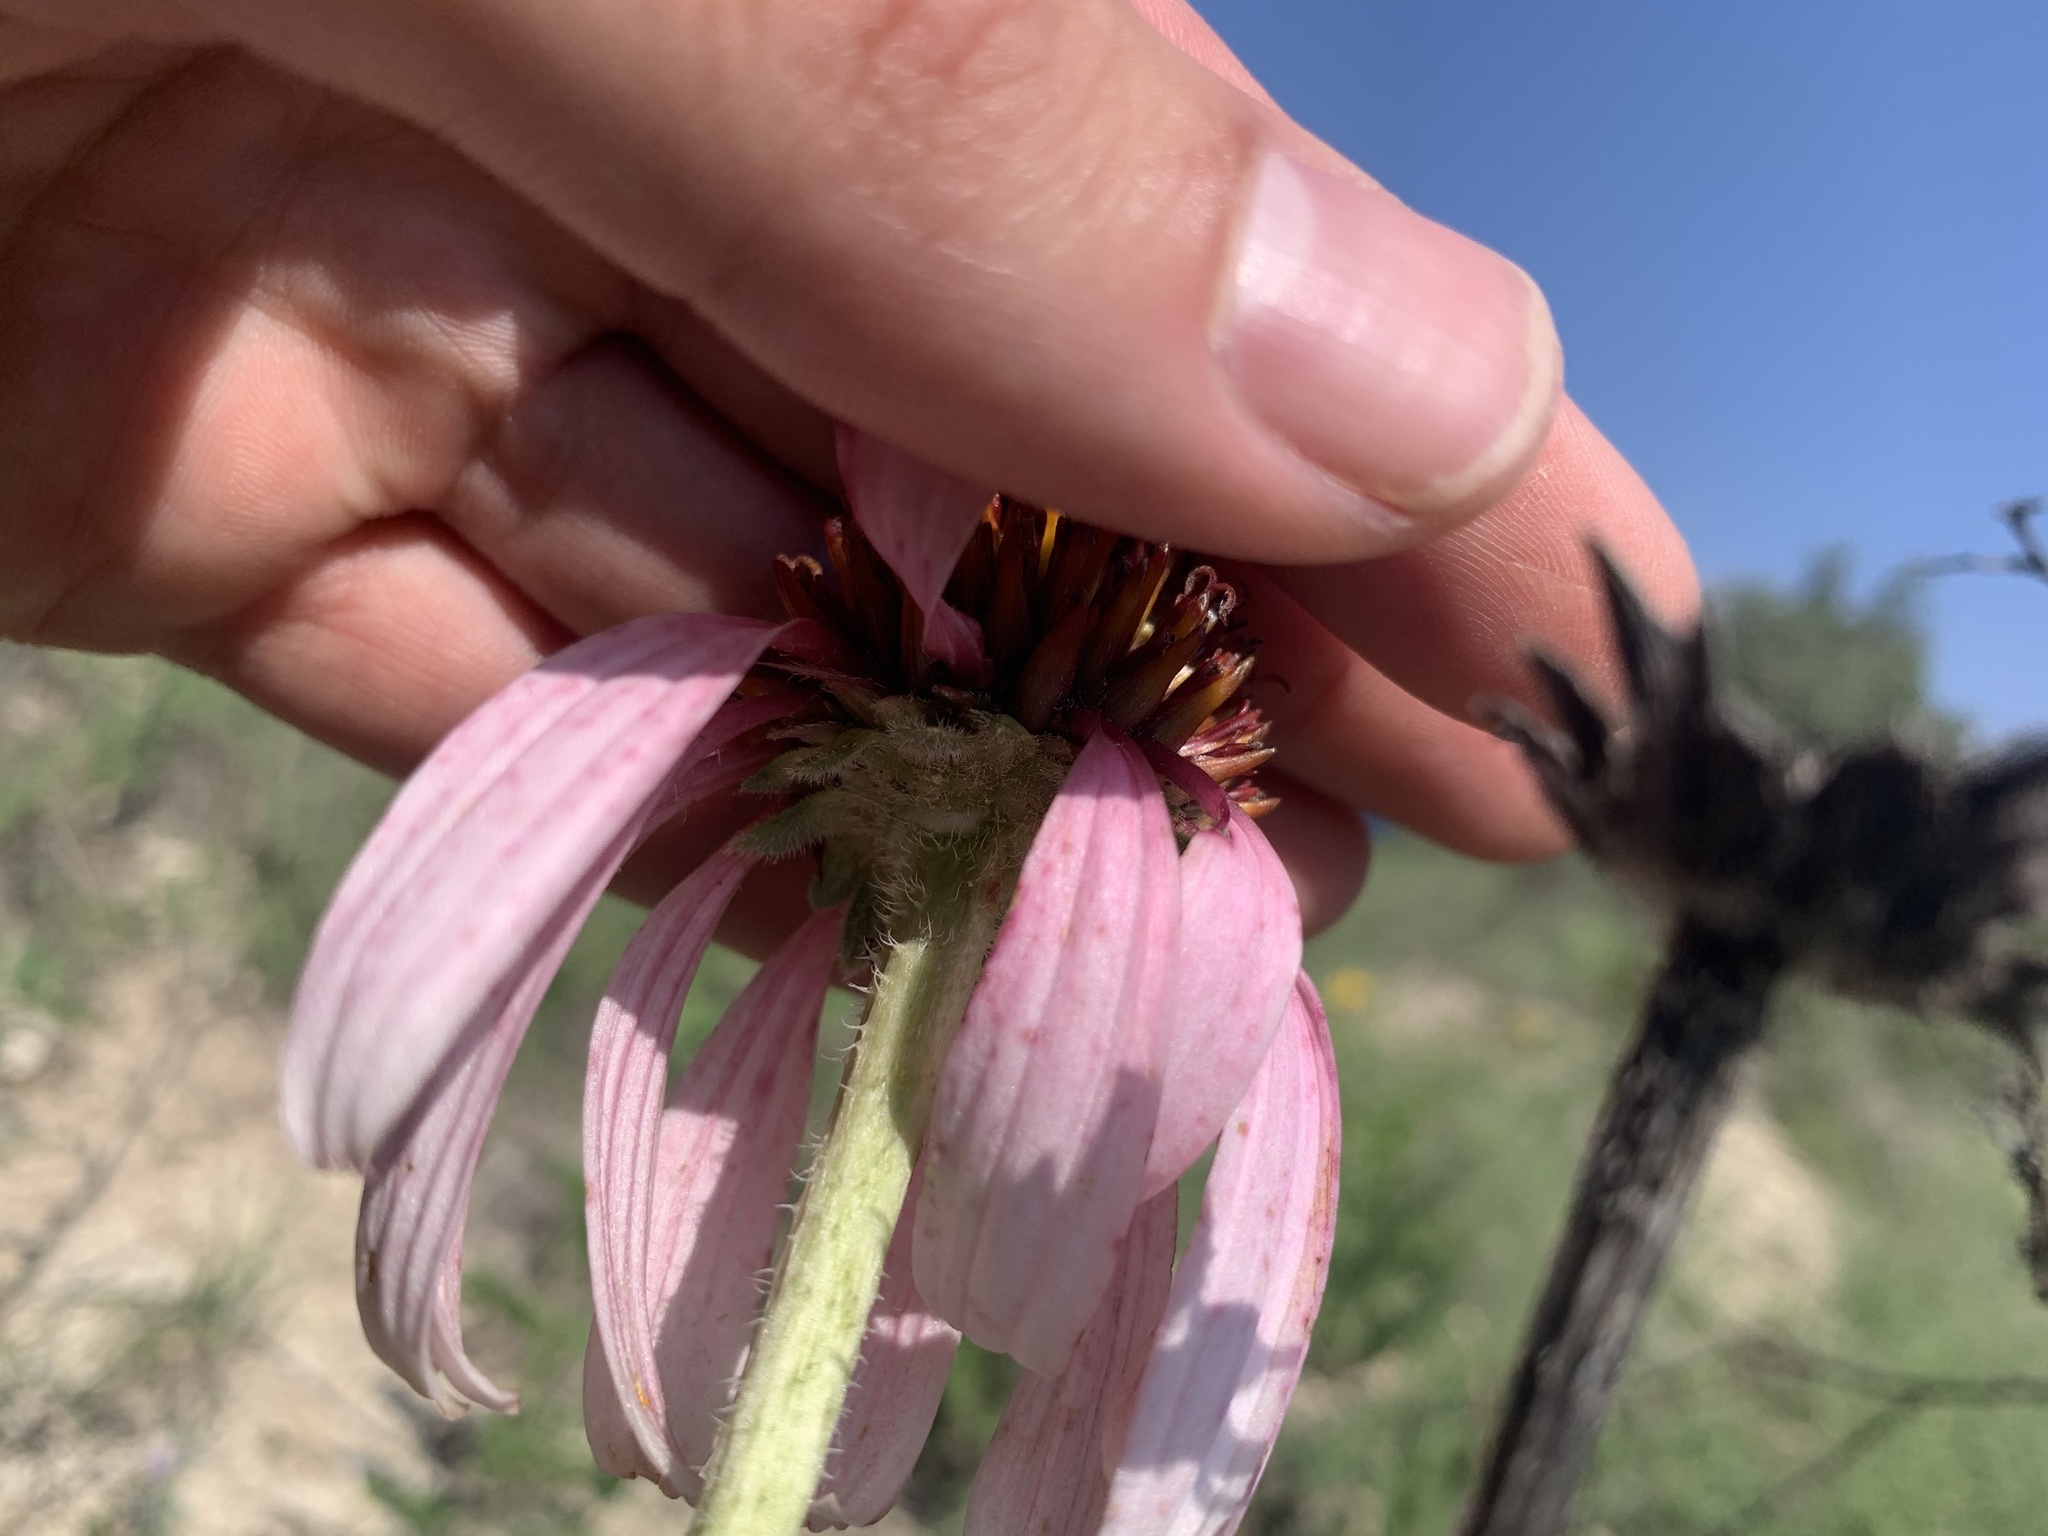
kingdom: Plantae
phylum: Tracheophyta
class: Magnoliopsida
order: Asterales
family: Asteraceae
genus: Echinacea
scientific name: Echinacea angustifolia
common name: Black-sampson echinacea
